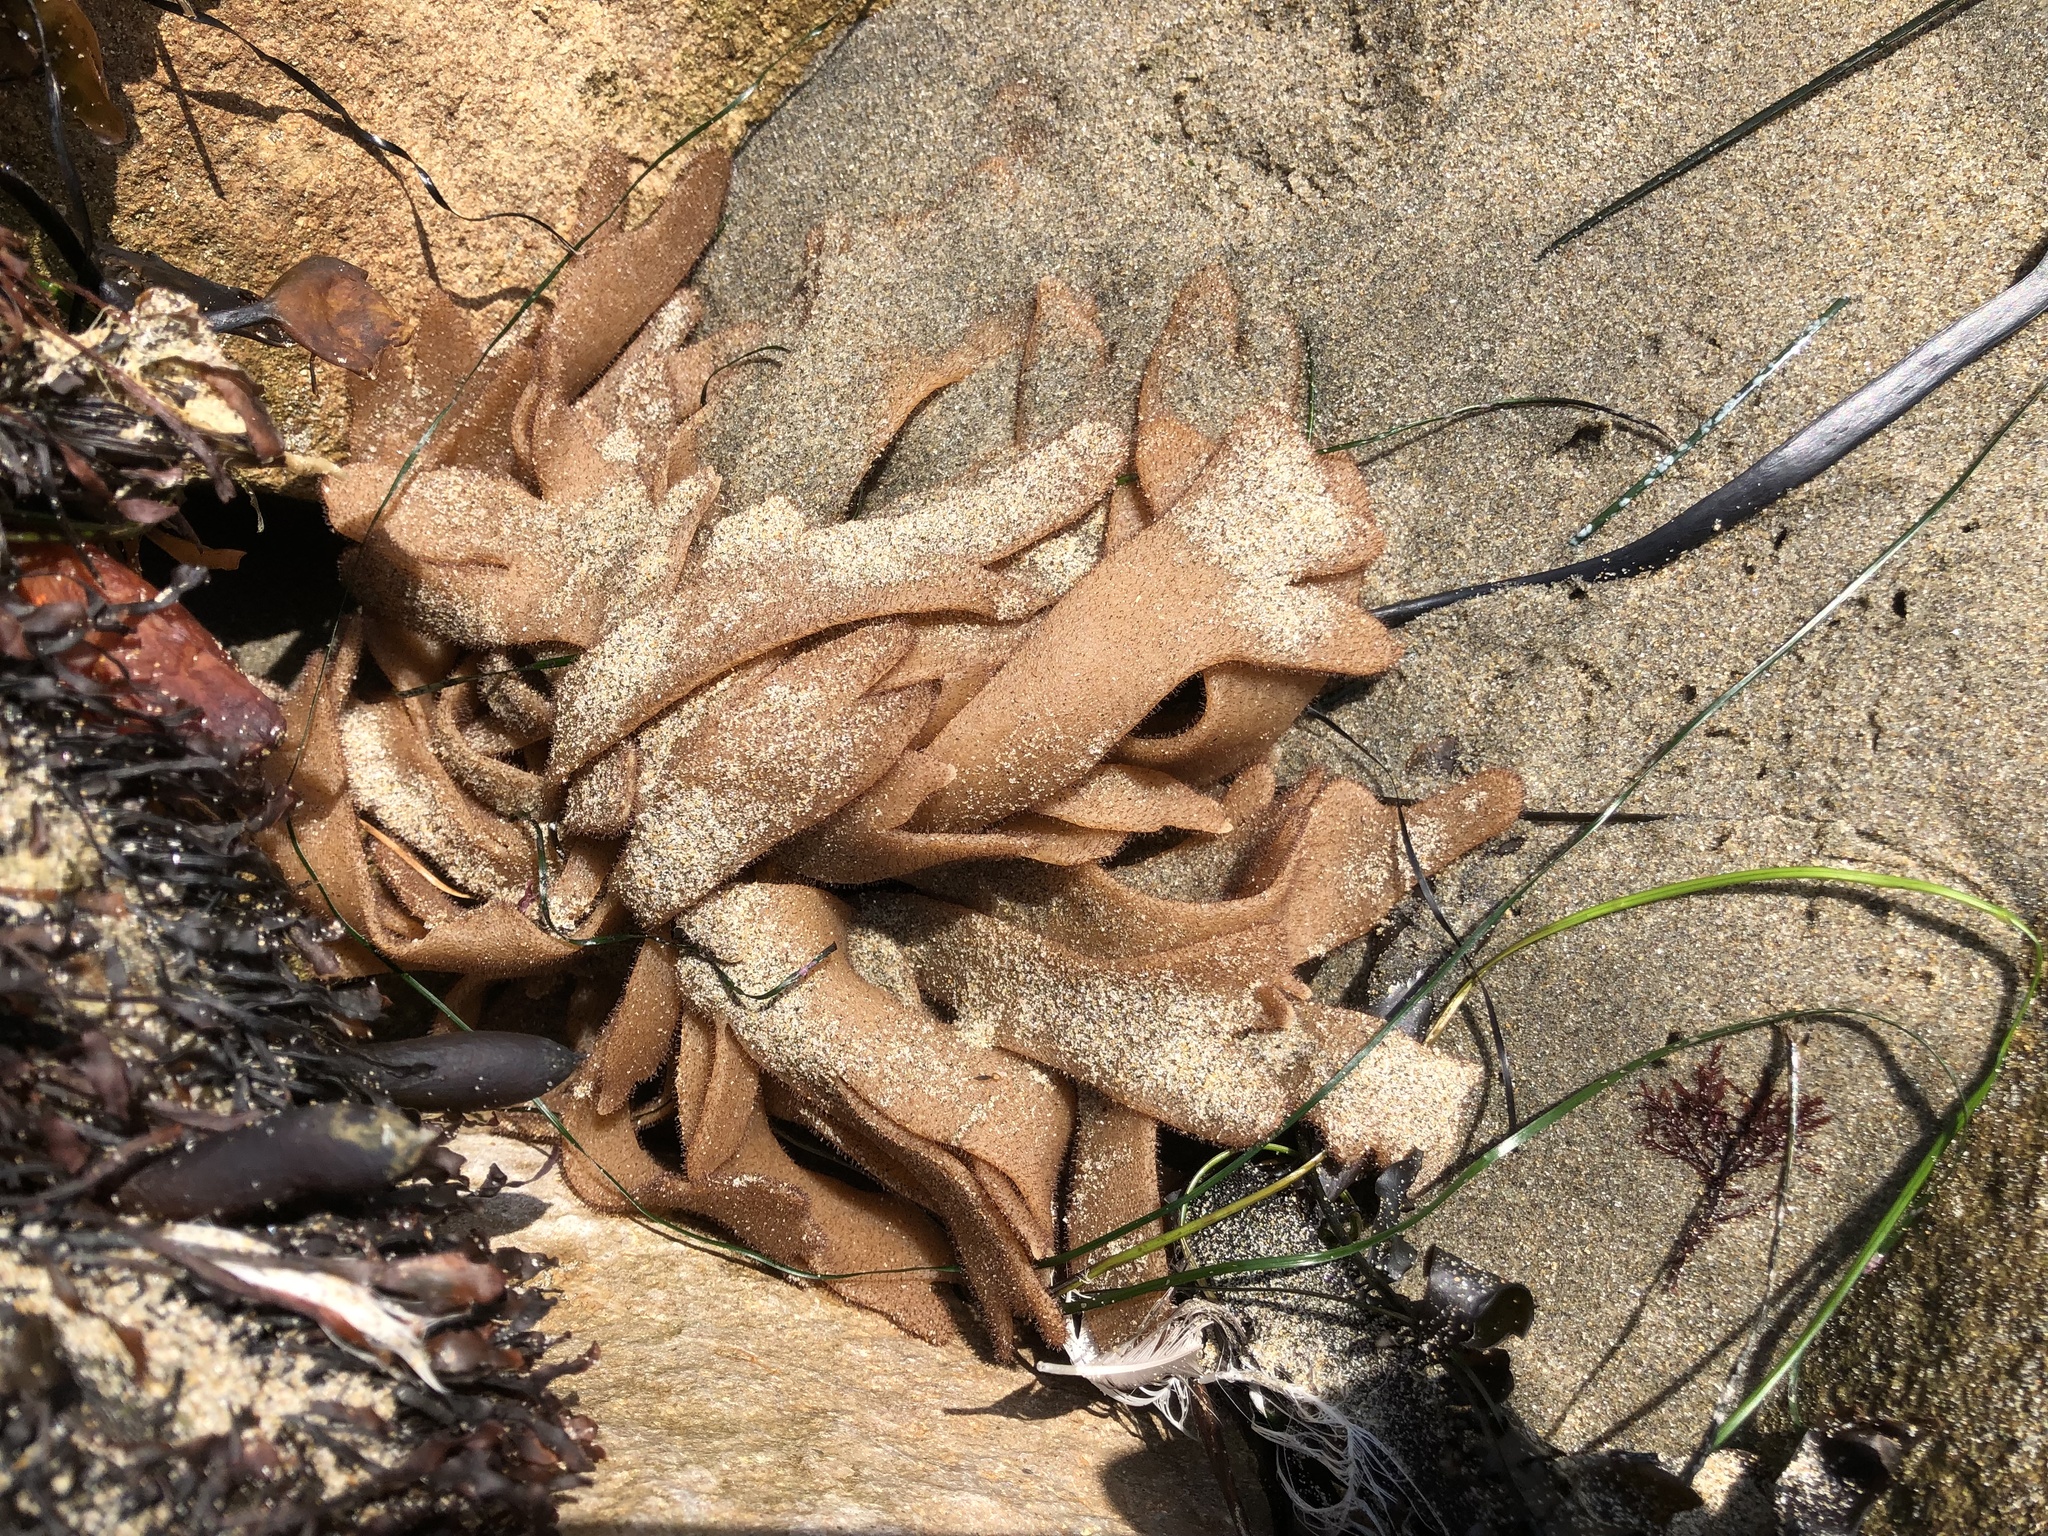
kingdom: Animalia
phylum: Bryozoa
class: Gymnolaemata
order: Ctenostomatida
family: Flustrellidridae
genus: Flustrellidra
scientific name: Flustrellidra corniculata
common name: Spiny leather bryozoan
